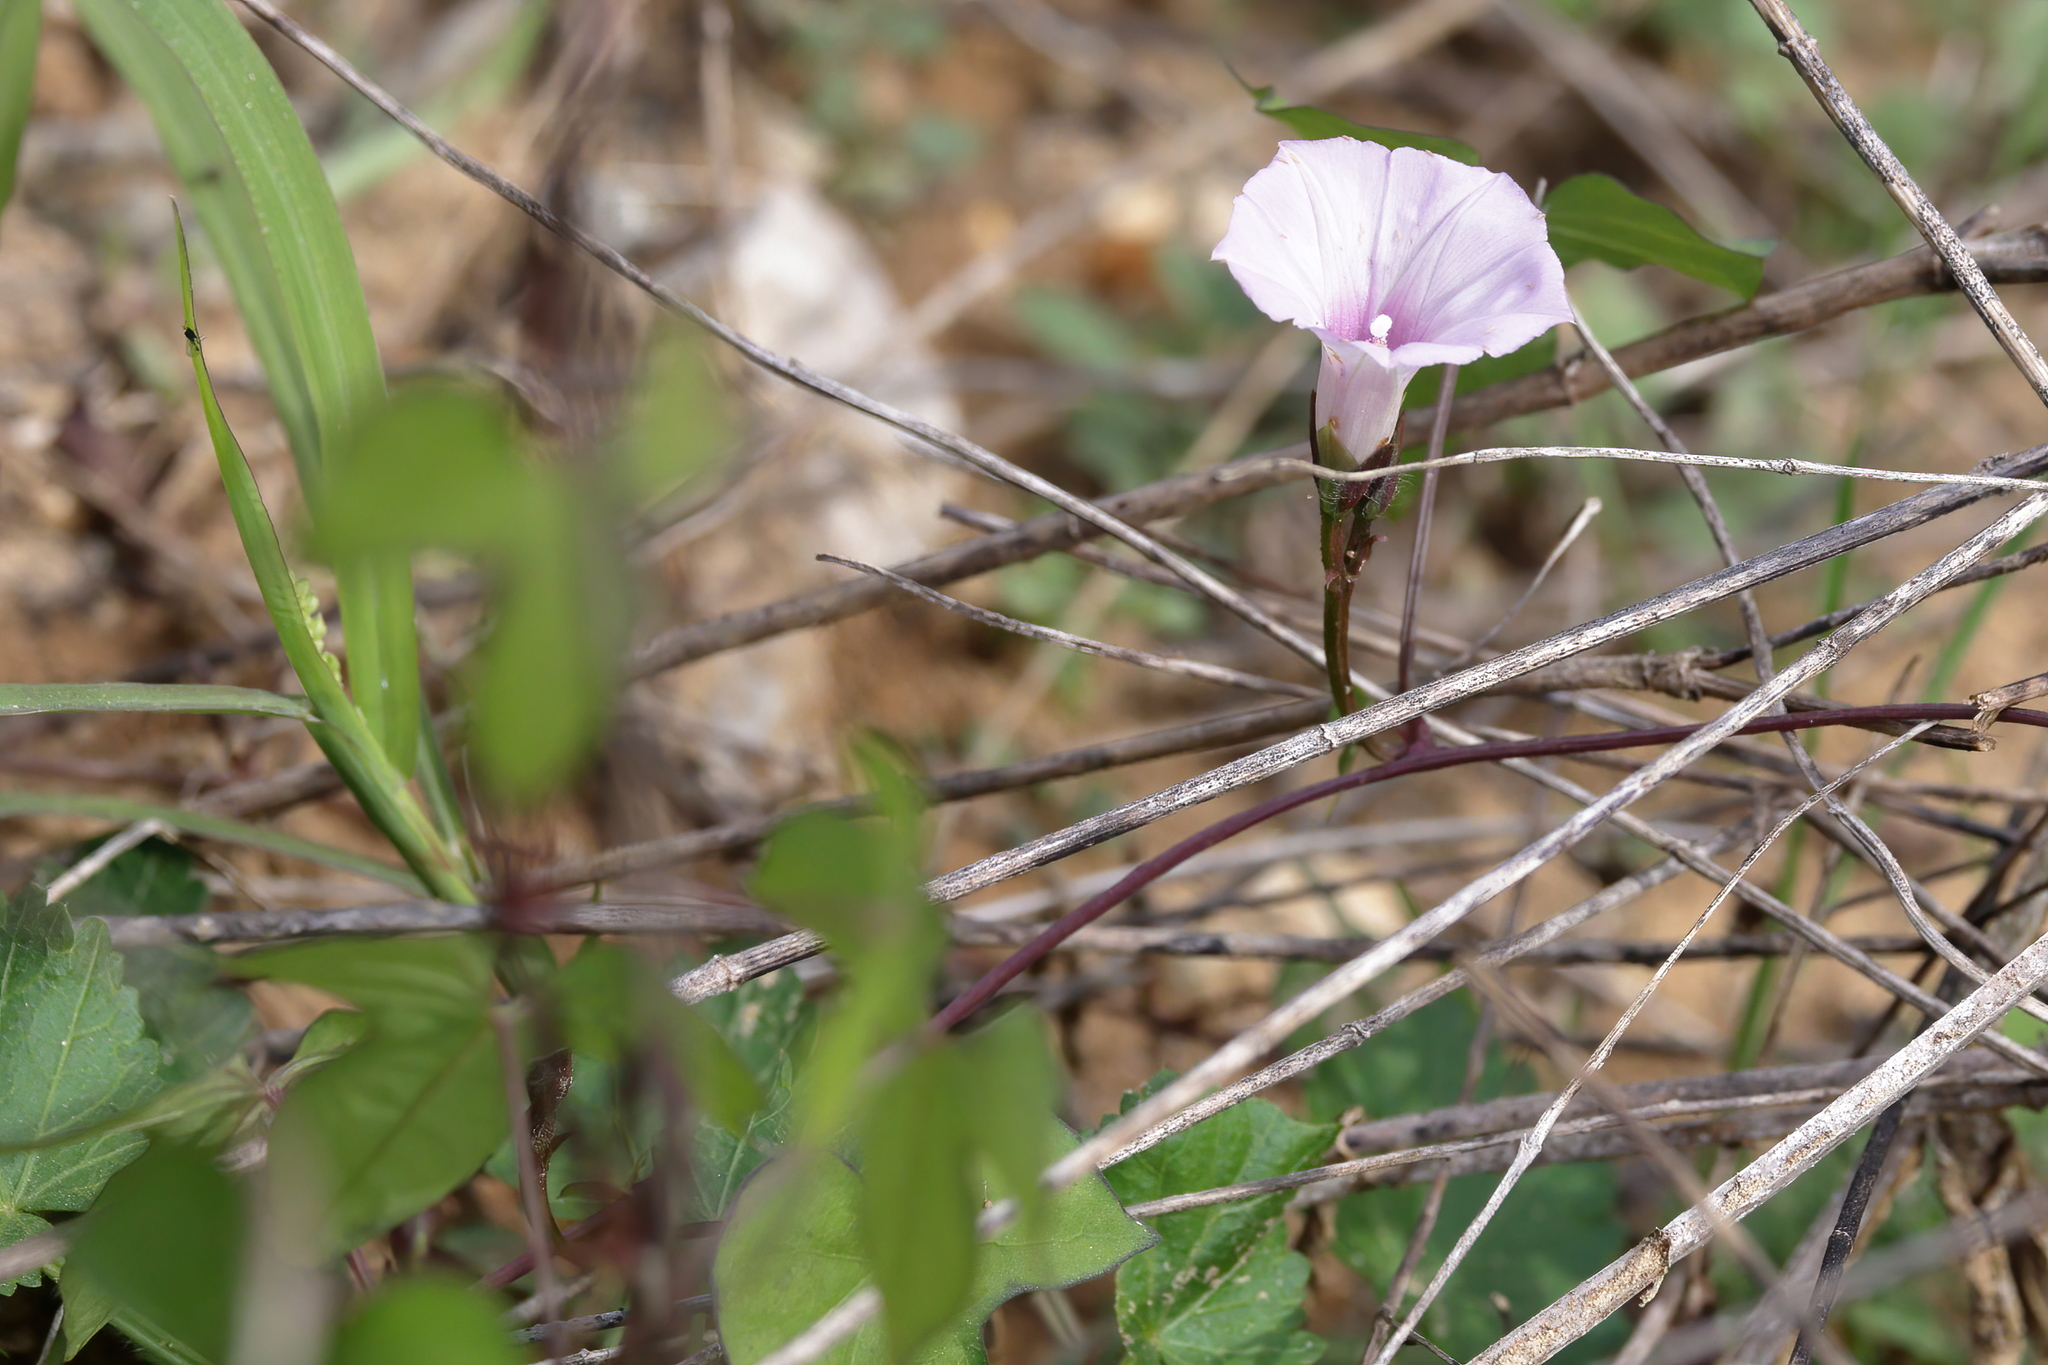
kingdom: Plantae
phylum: Tracheophyta
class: Magnoliopsida
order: Solanales
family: Convolvulaceae
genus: Ipomoea
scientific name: Ipomoea cordatotriloba
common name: Cotton morning glory
